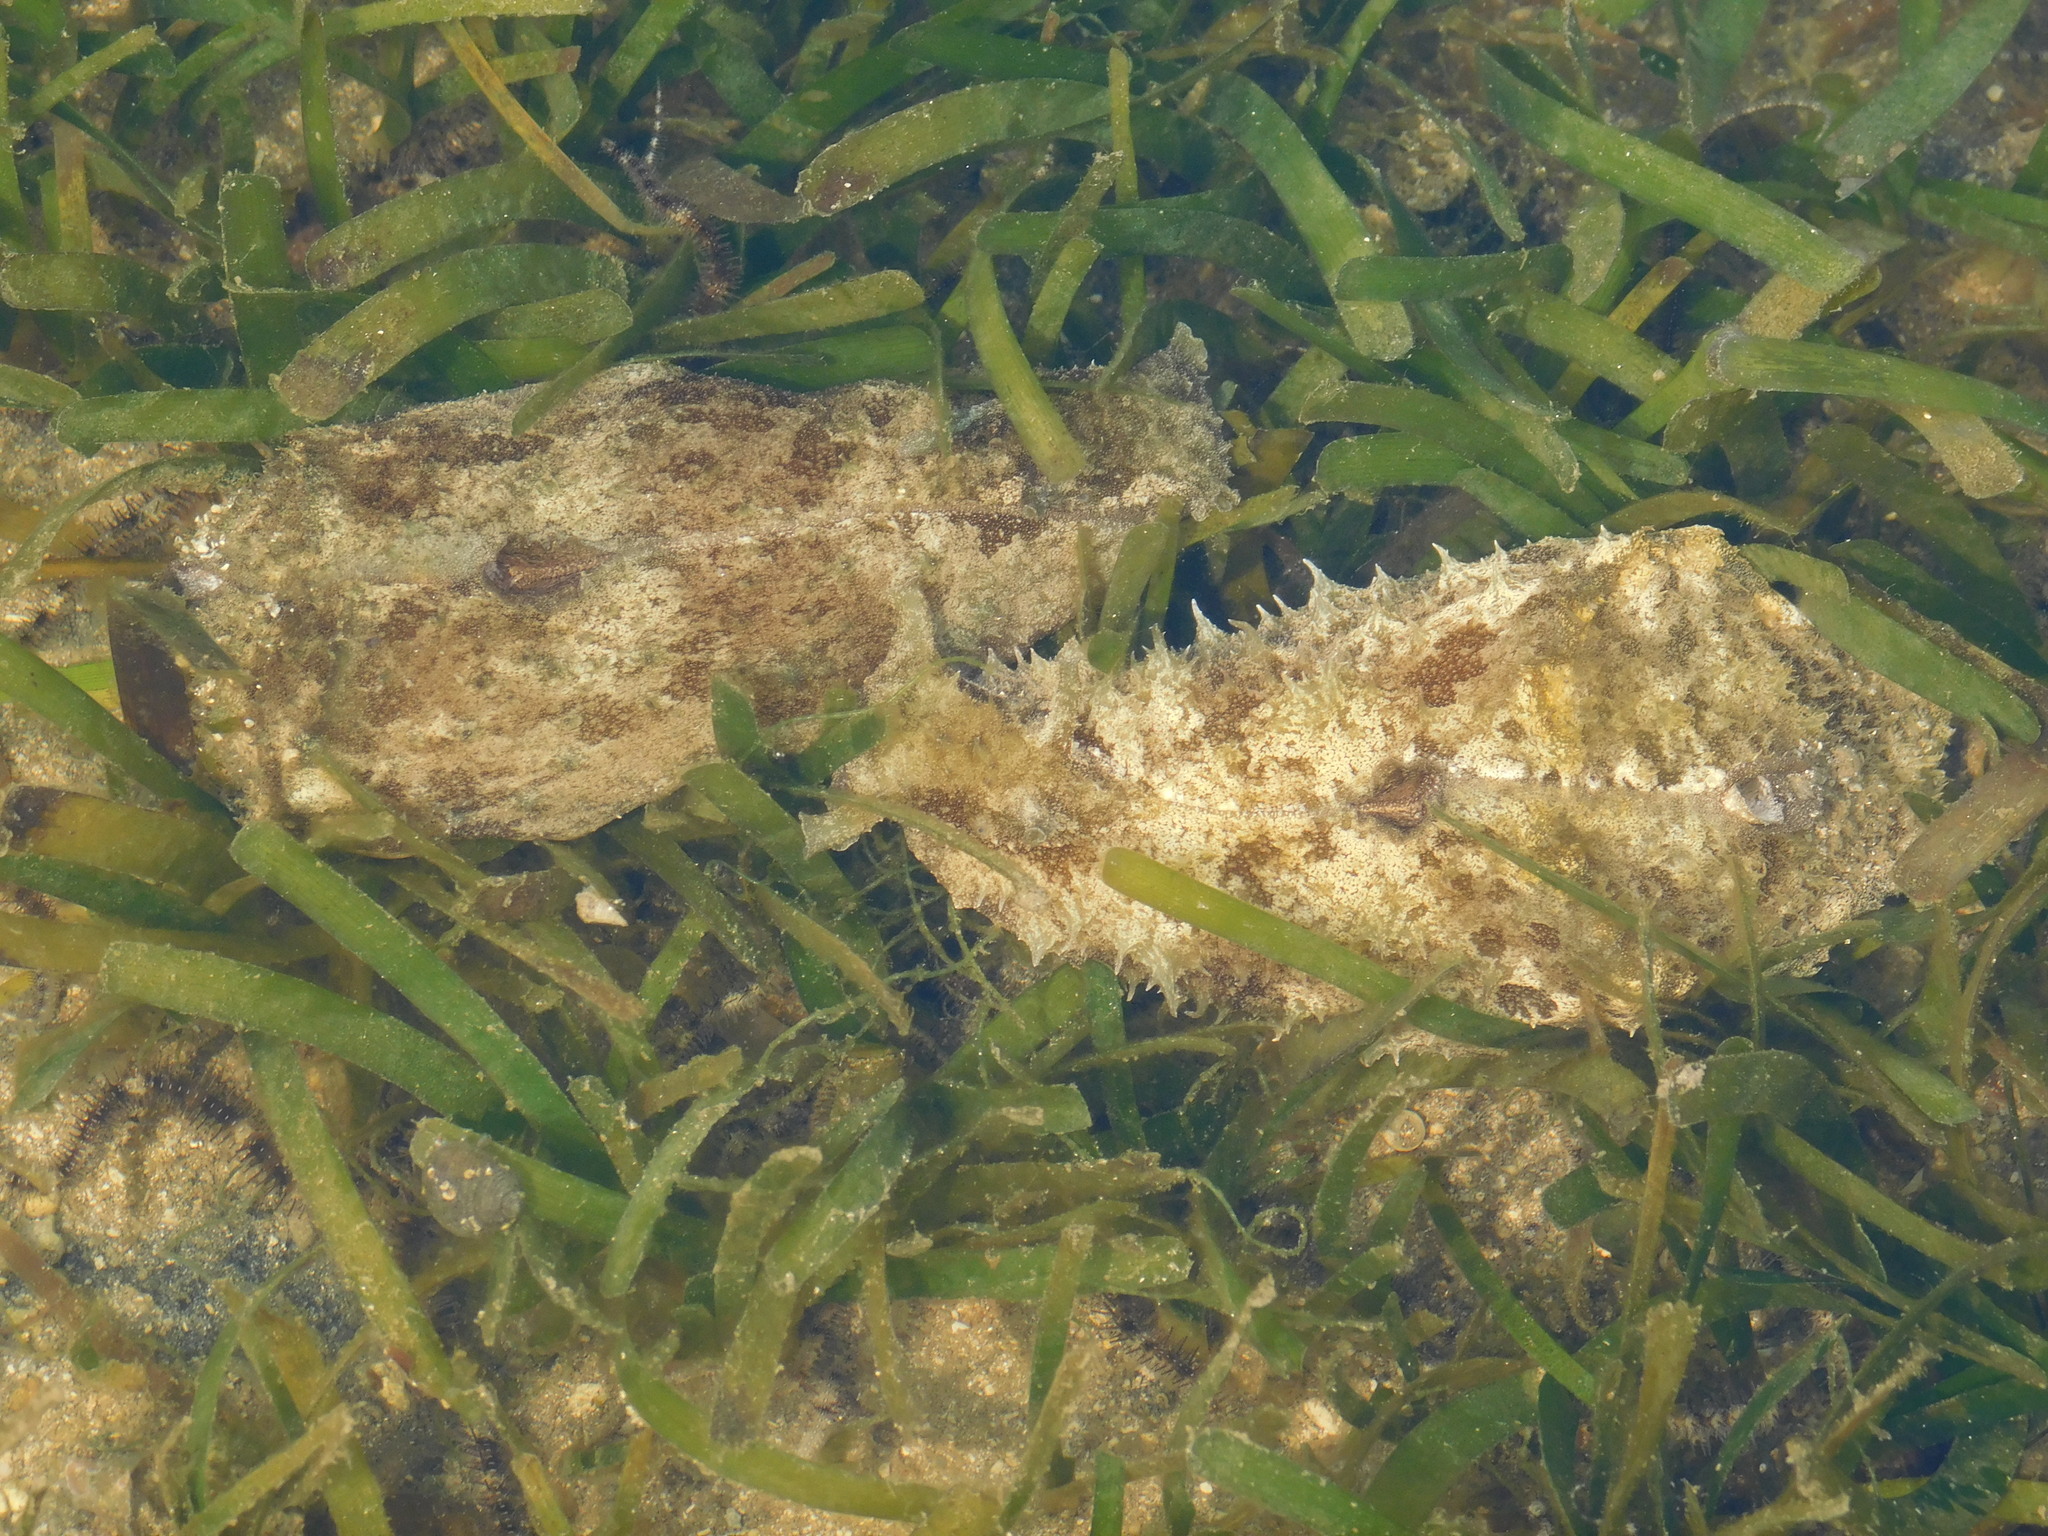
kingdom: Animalia
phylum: Mollusca
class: Gastropoda
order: Aplysiida
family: Aplysiidae
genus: Dolabella
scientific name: Dolabella auricularia
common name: Blunt-end seahare
